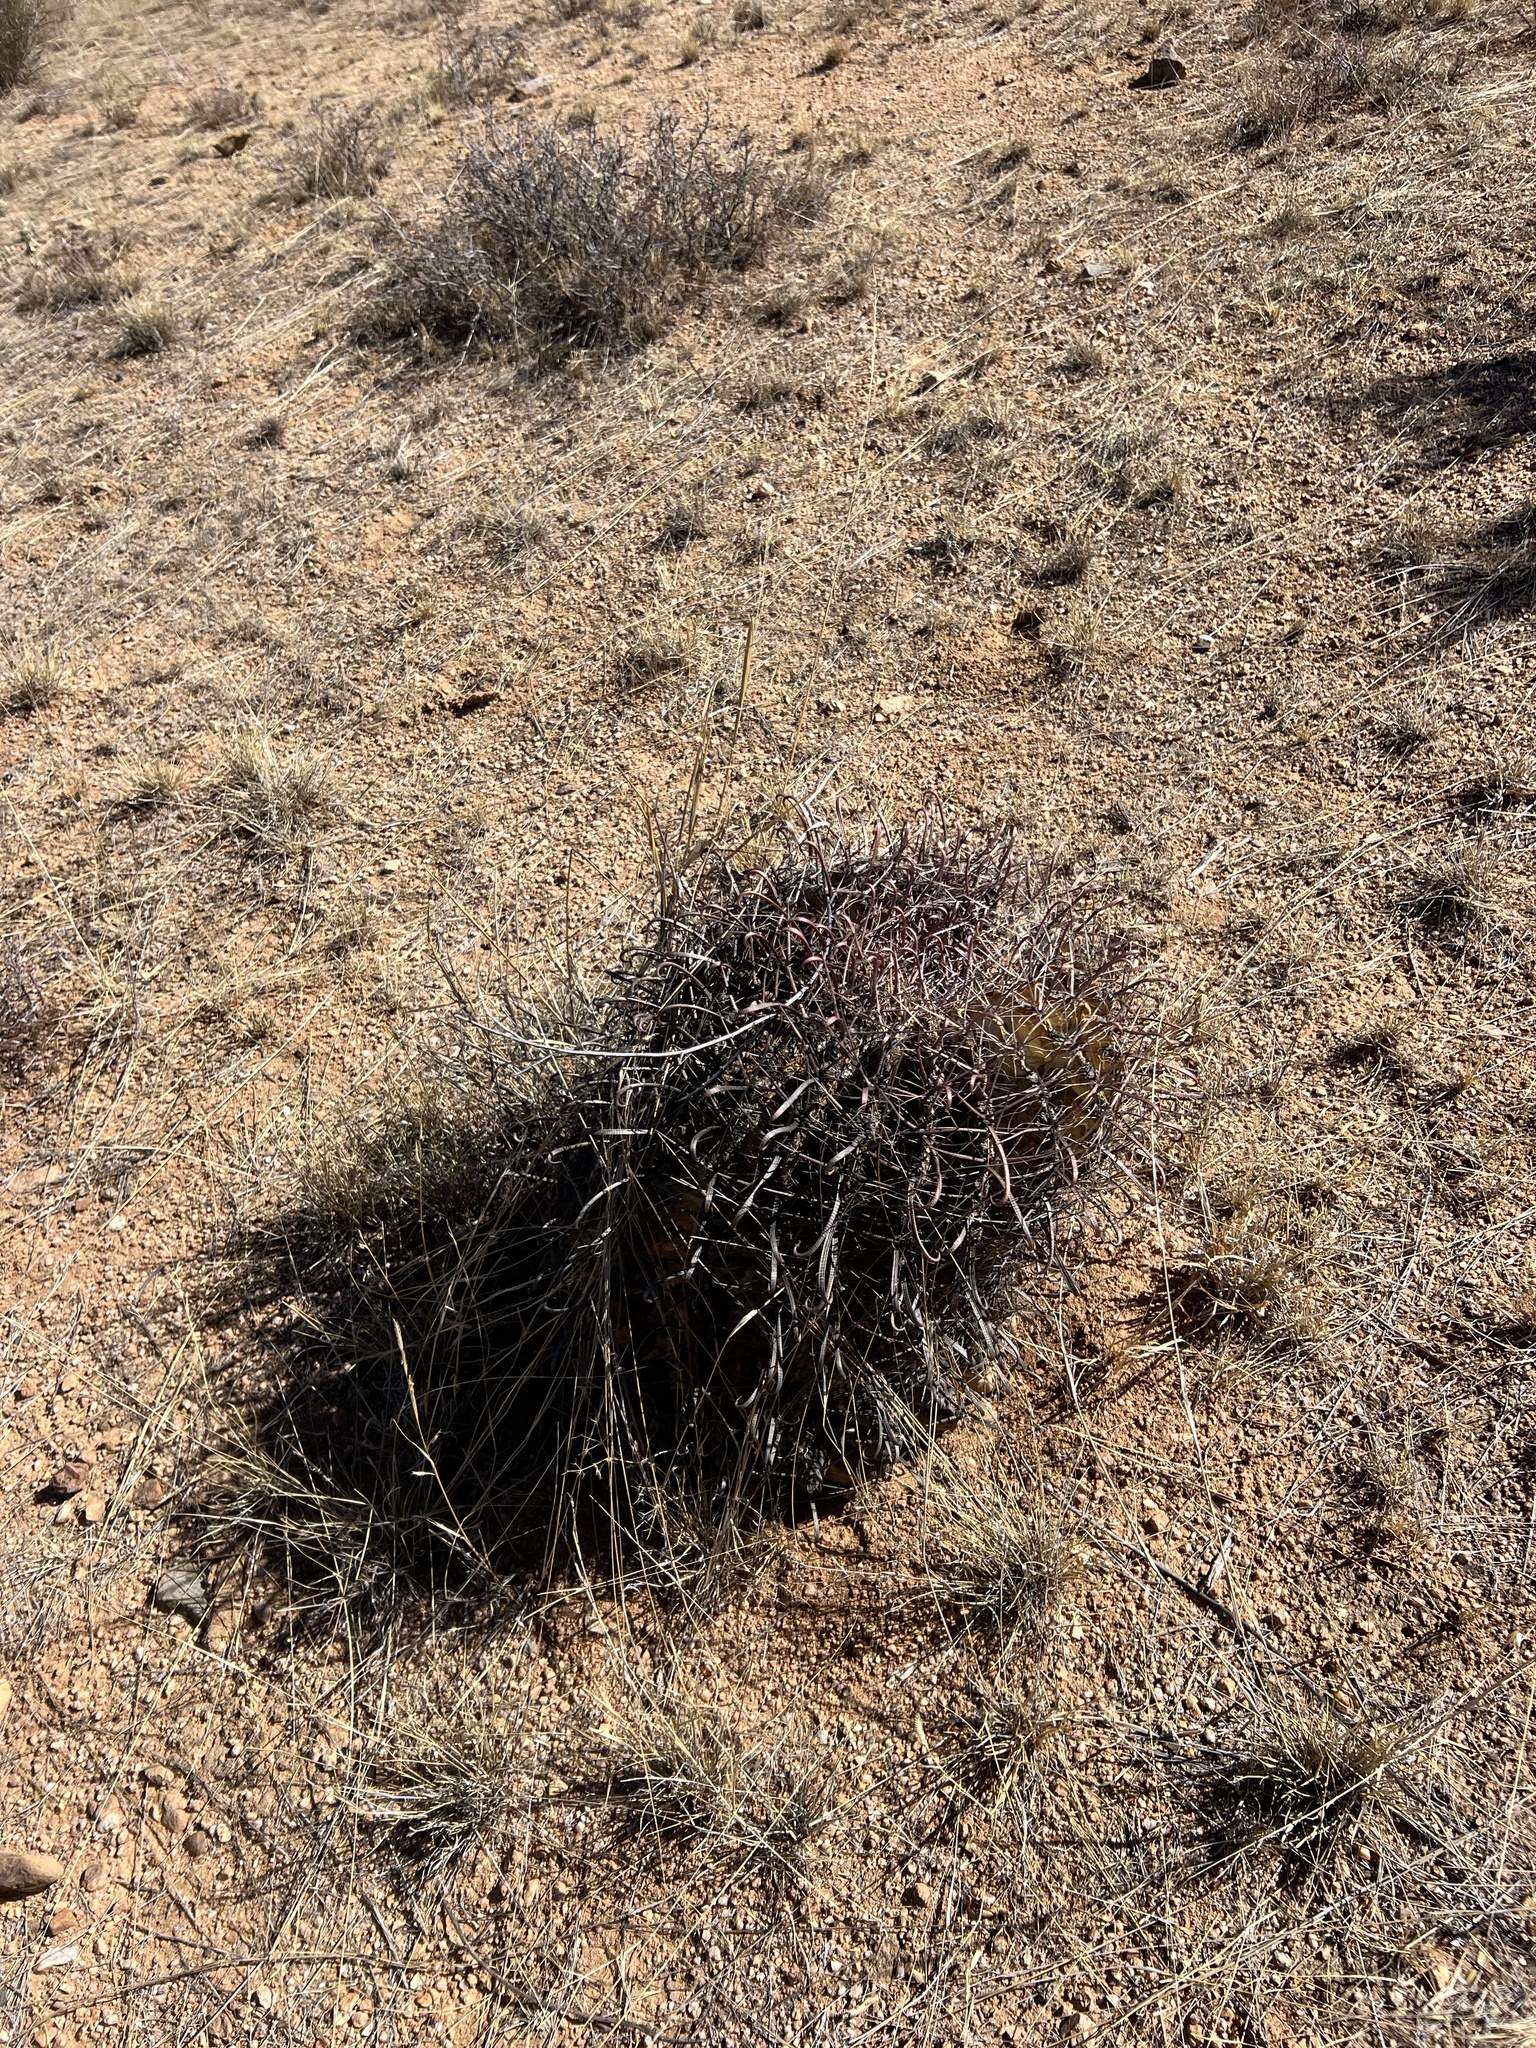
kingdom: Plantae
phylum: Tracheophyta
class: Magnoliopsida
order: Caryophyllales
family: Cactaceae
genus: Ferocactus
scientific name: Ferocactus wislizeni
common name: Candy barrel cactus
